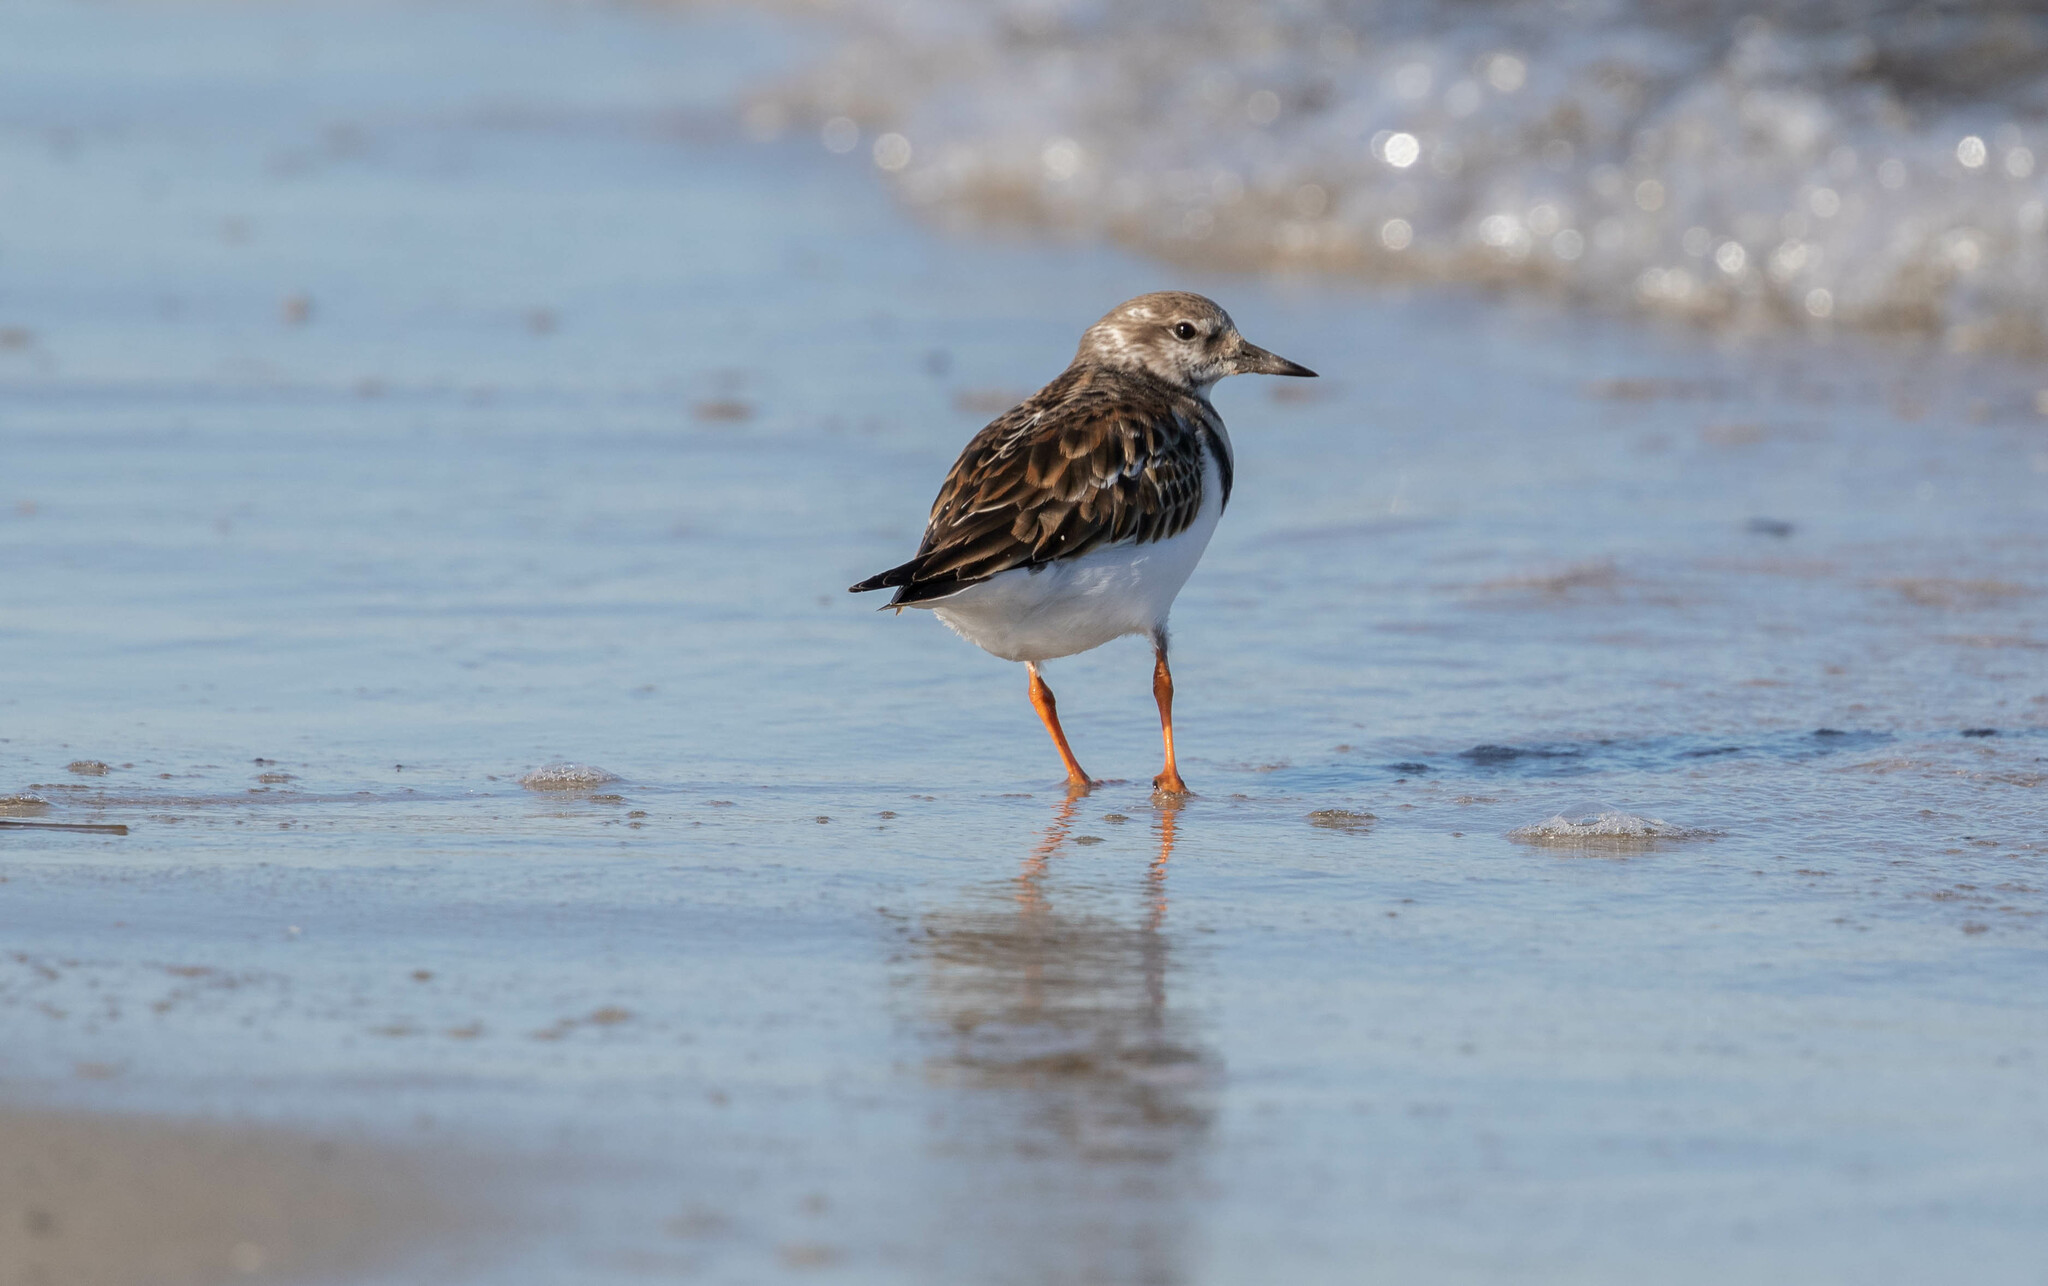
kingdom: Animalia
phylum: Chordata
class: Aves
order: Charadriiformes
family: Scolopacidae
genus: Arenaria
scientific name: Arenaria interpres
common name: Ruddy turnstone
